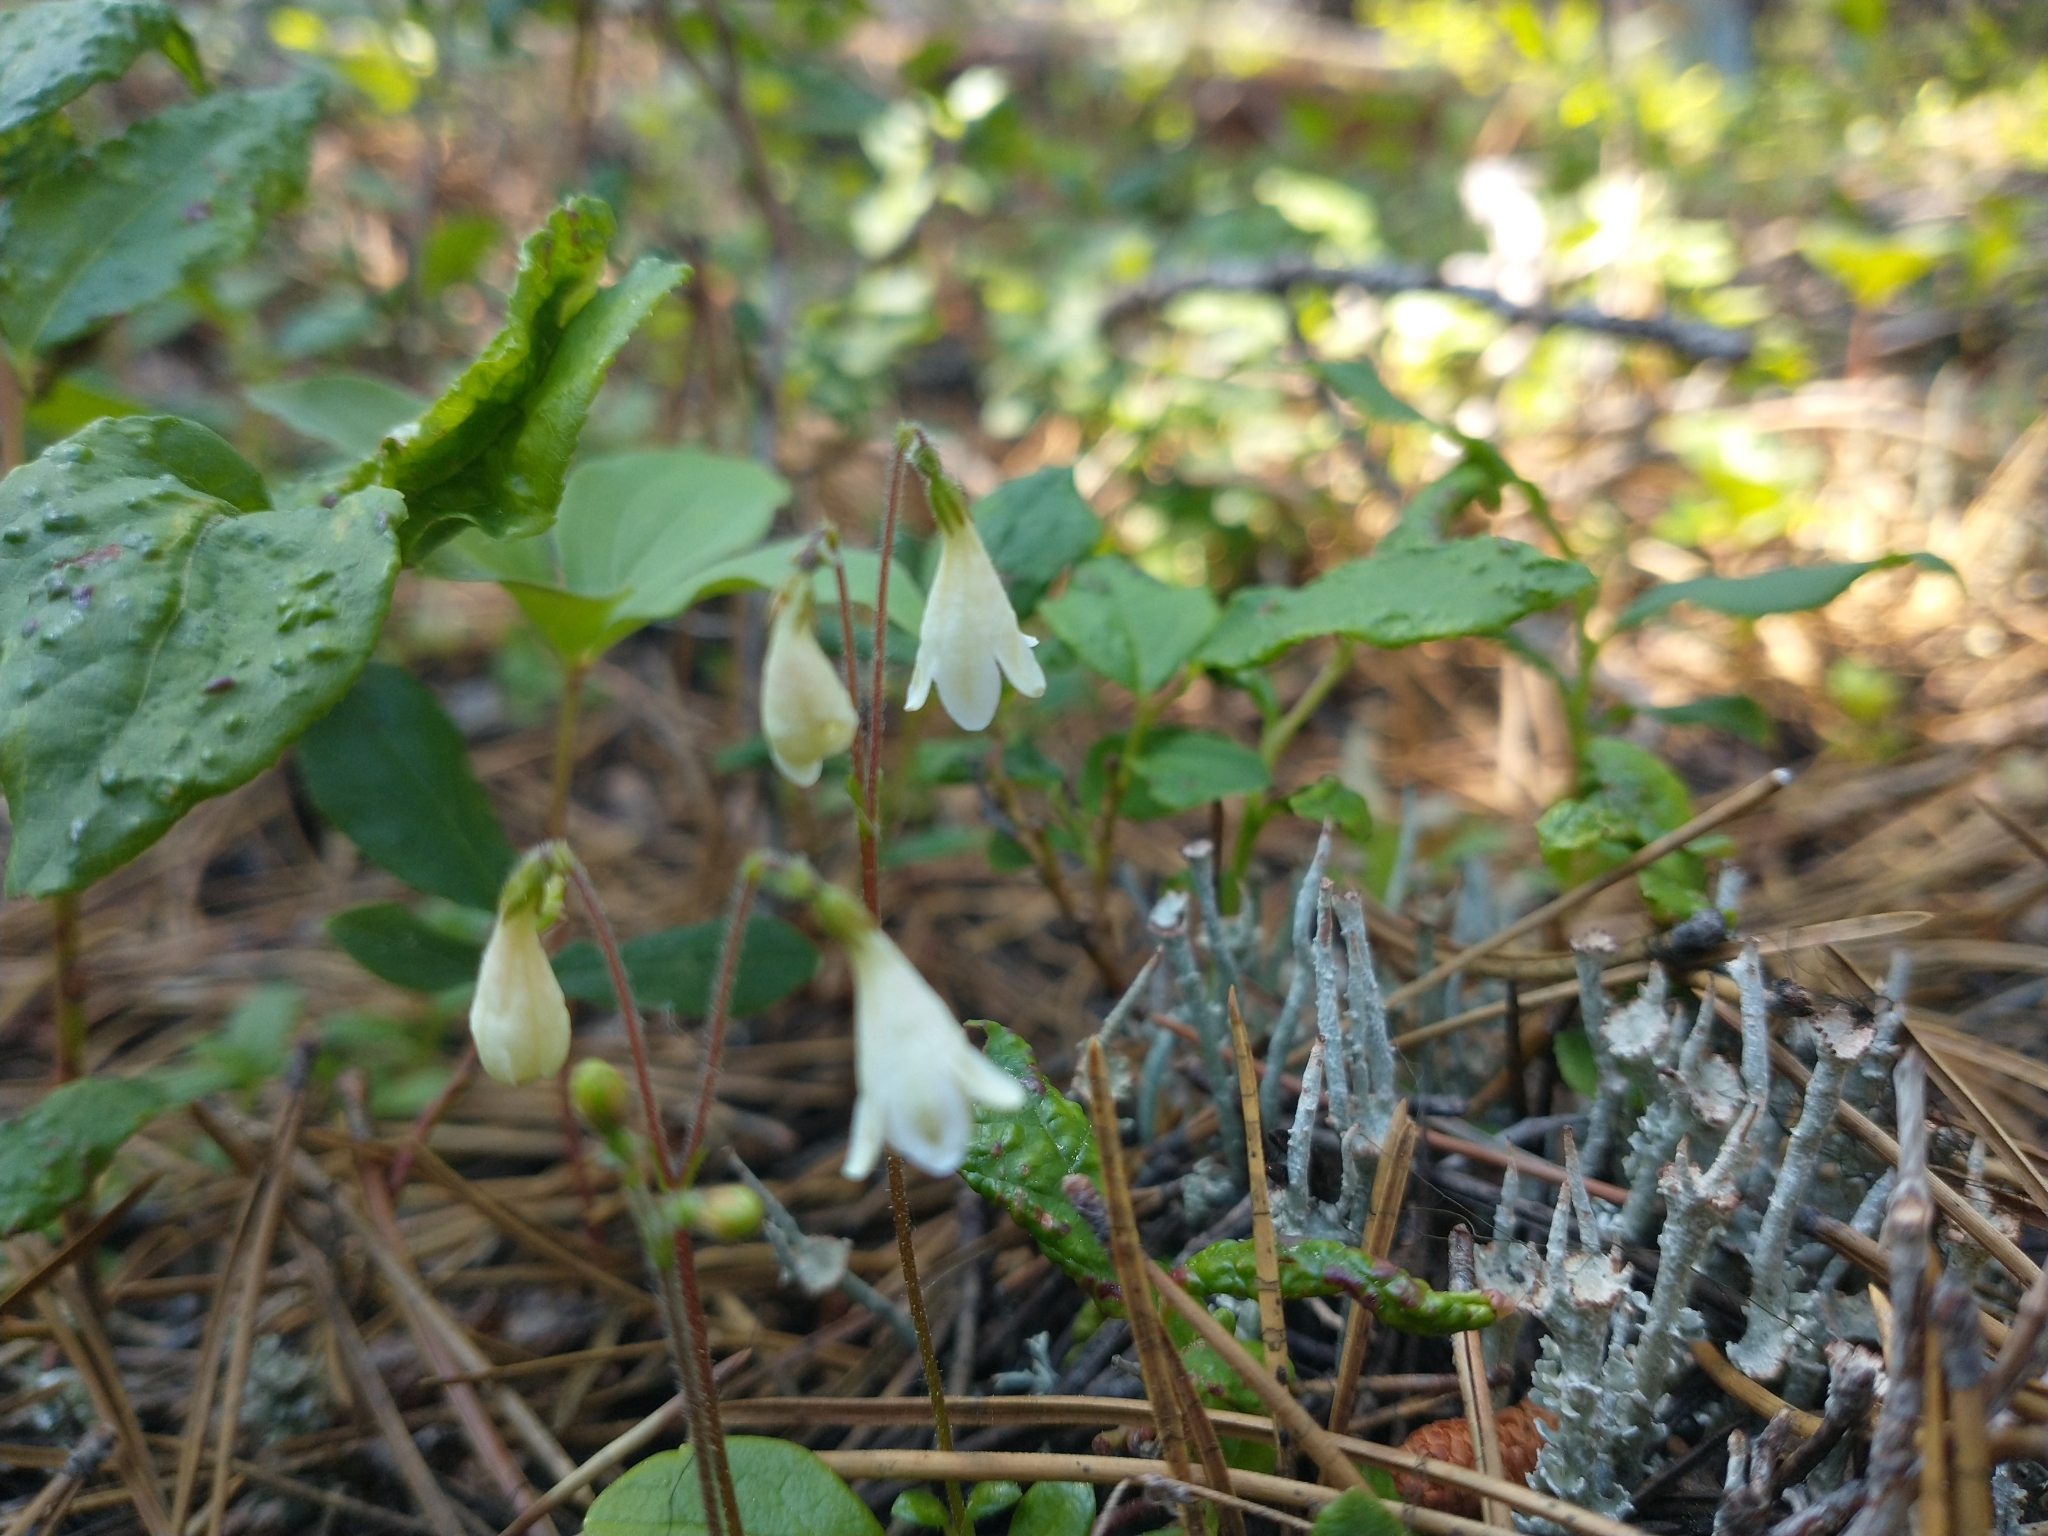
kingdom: Plantae
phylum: Tracheophyta
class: Magnoliopsida
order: Dipsacales
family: Caprifoliaceae
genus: Linnaea
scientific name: Linnaea borealis
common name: Twinflower
